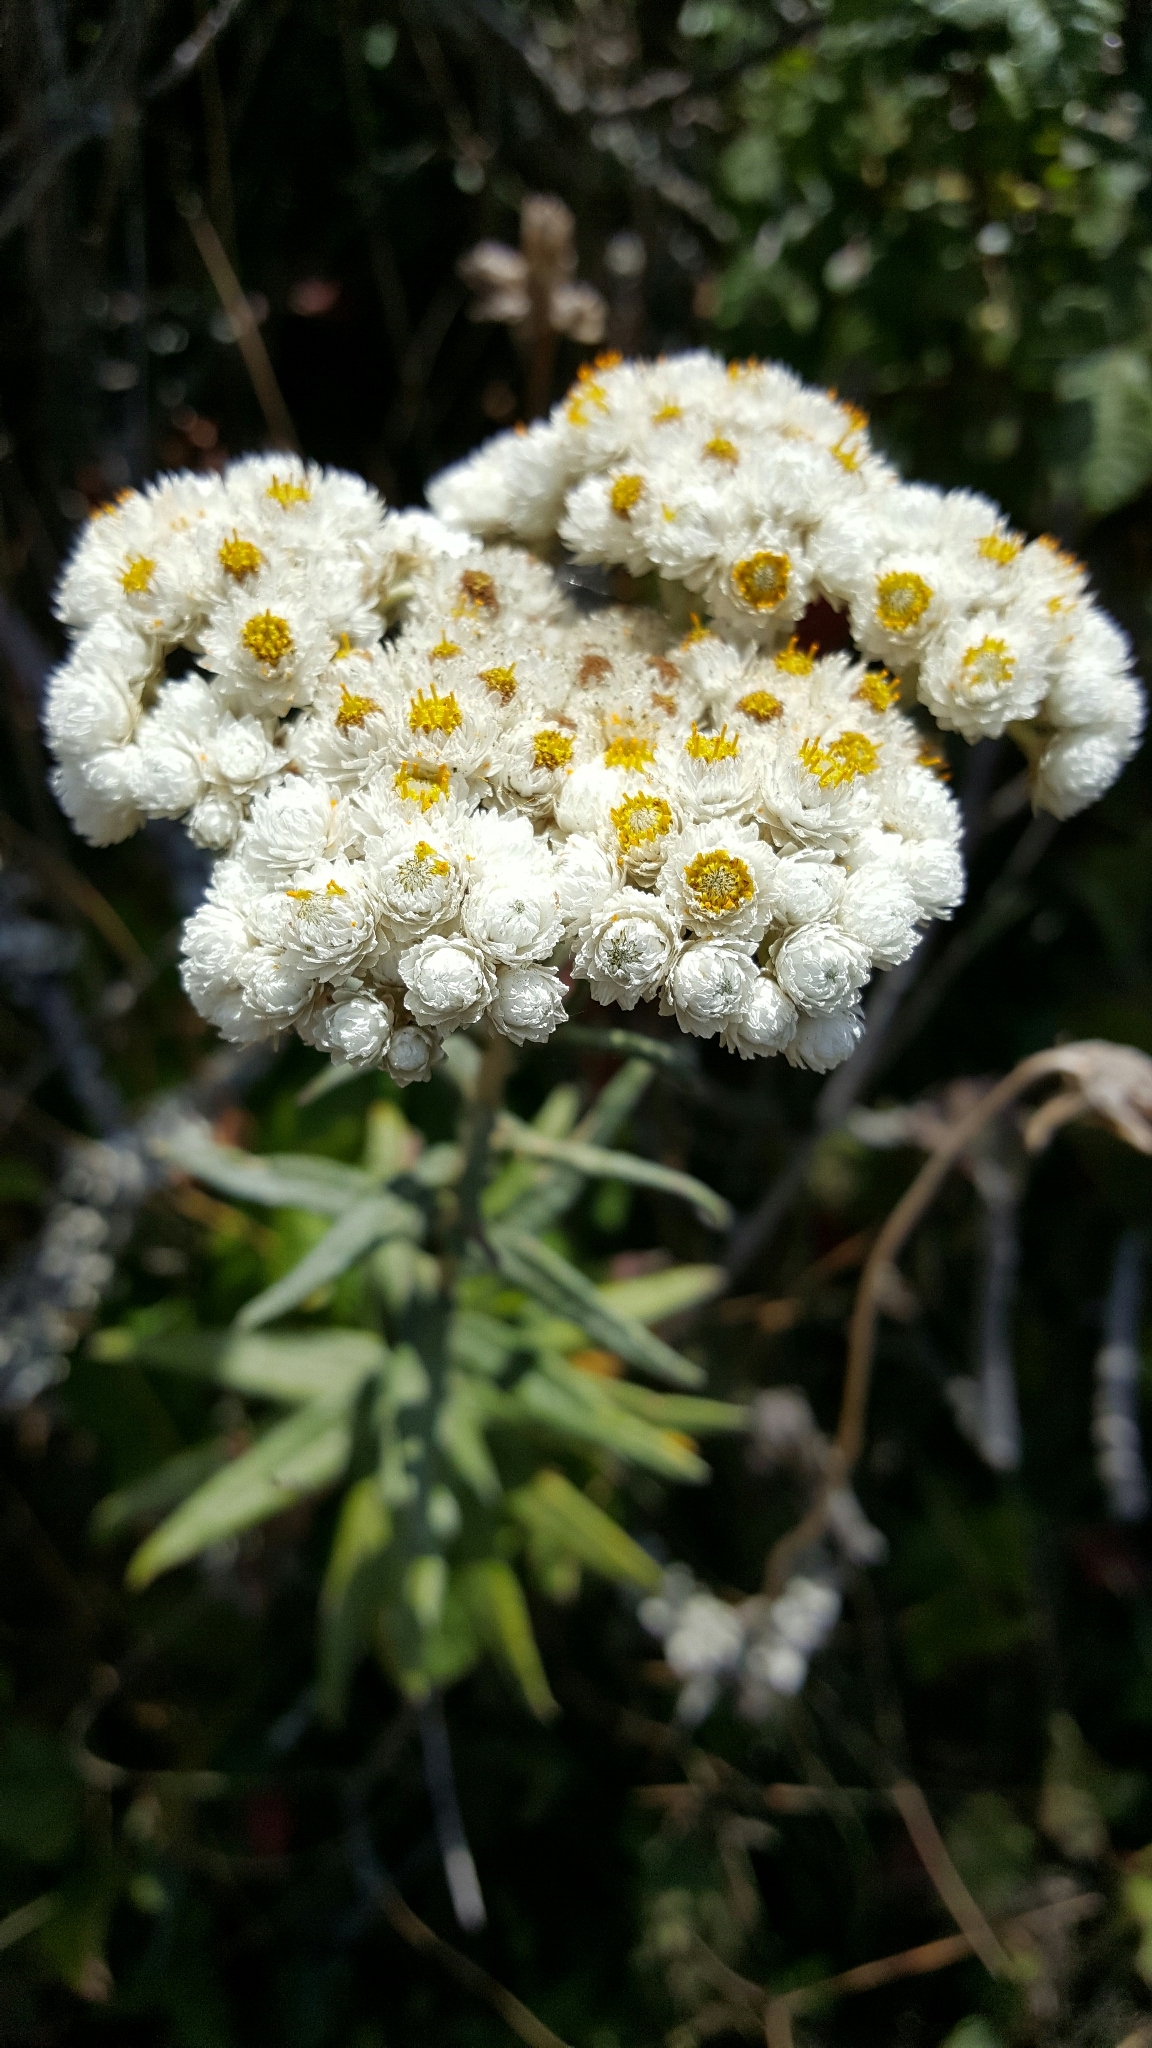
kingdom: Plantae
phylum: Tracheophyta
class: Magnoliopsida
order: Asterales
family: Asteraceae
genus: Anaphalis
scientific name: Anaphalis margaritacea
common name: Pearly everlasting
